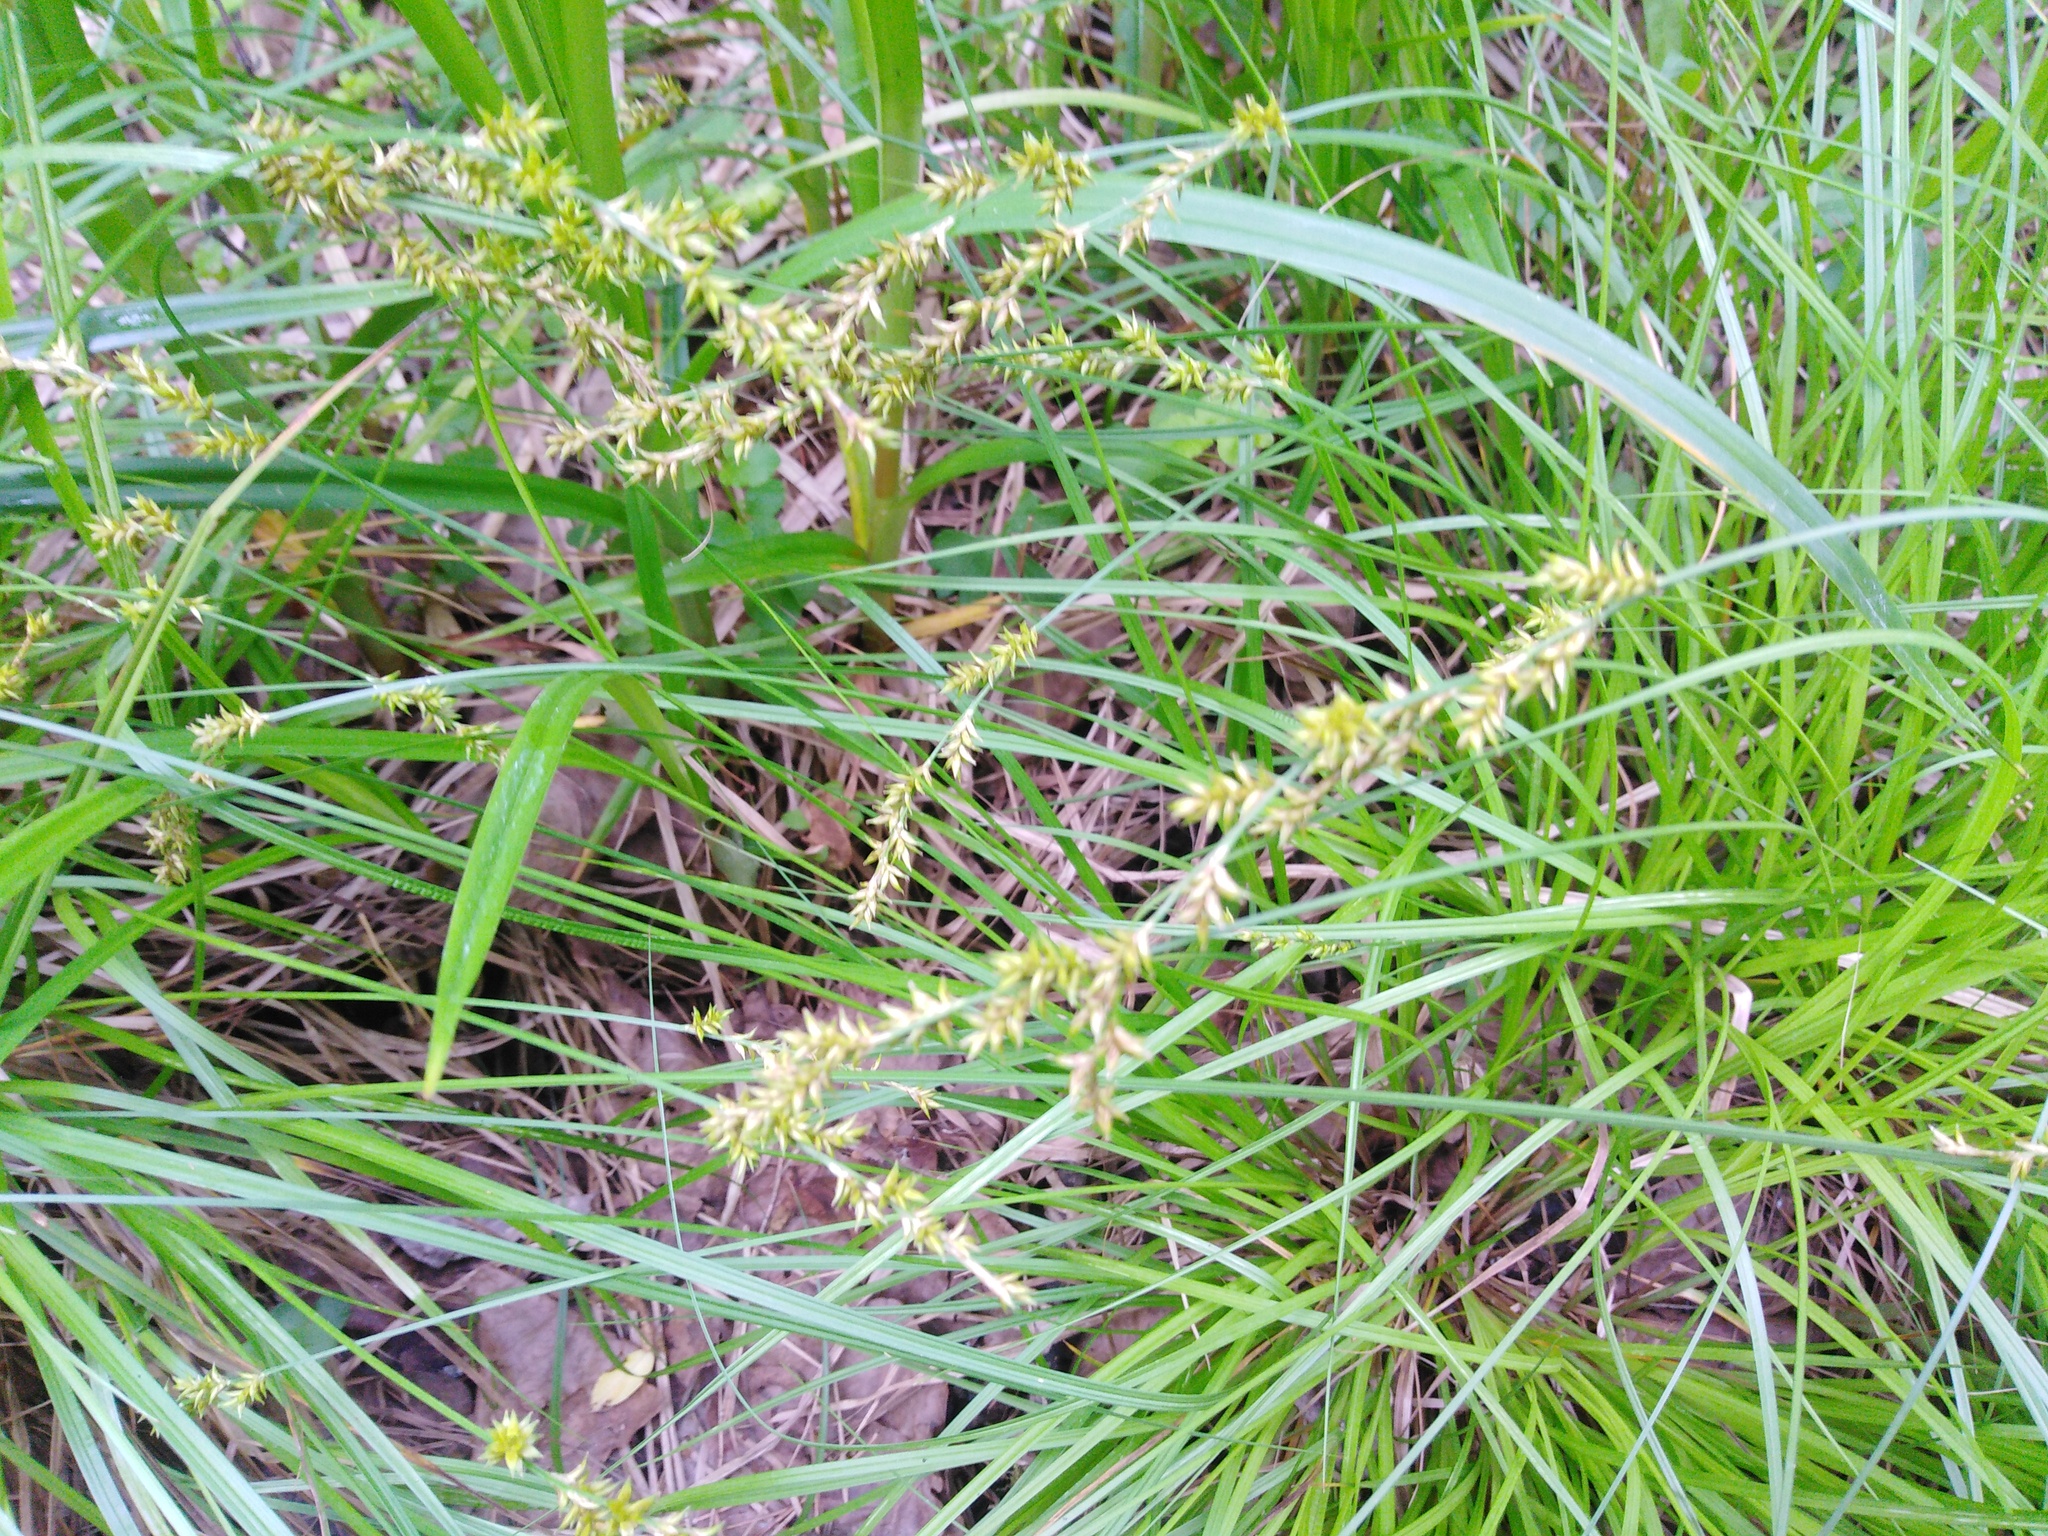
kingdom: Plantae
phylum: Tracheophyta
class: Liliopsida
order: Poales
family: Cyperaceae
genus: Carex
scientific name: Carex elongata
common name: Elongated sedge
